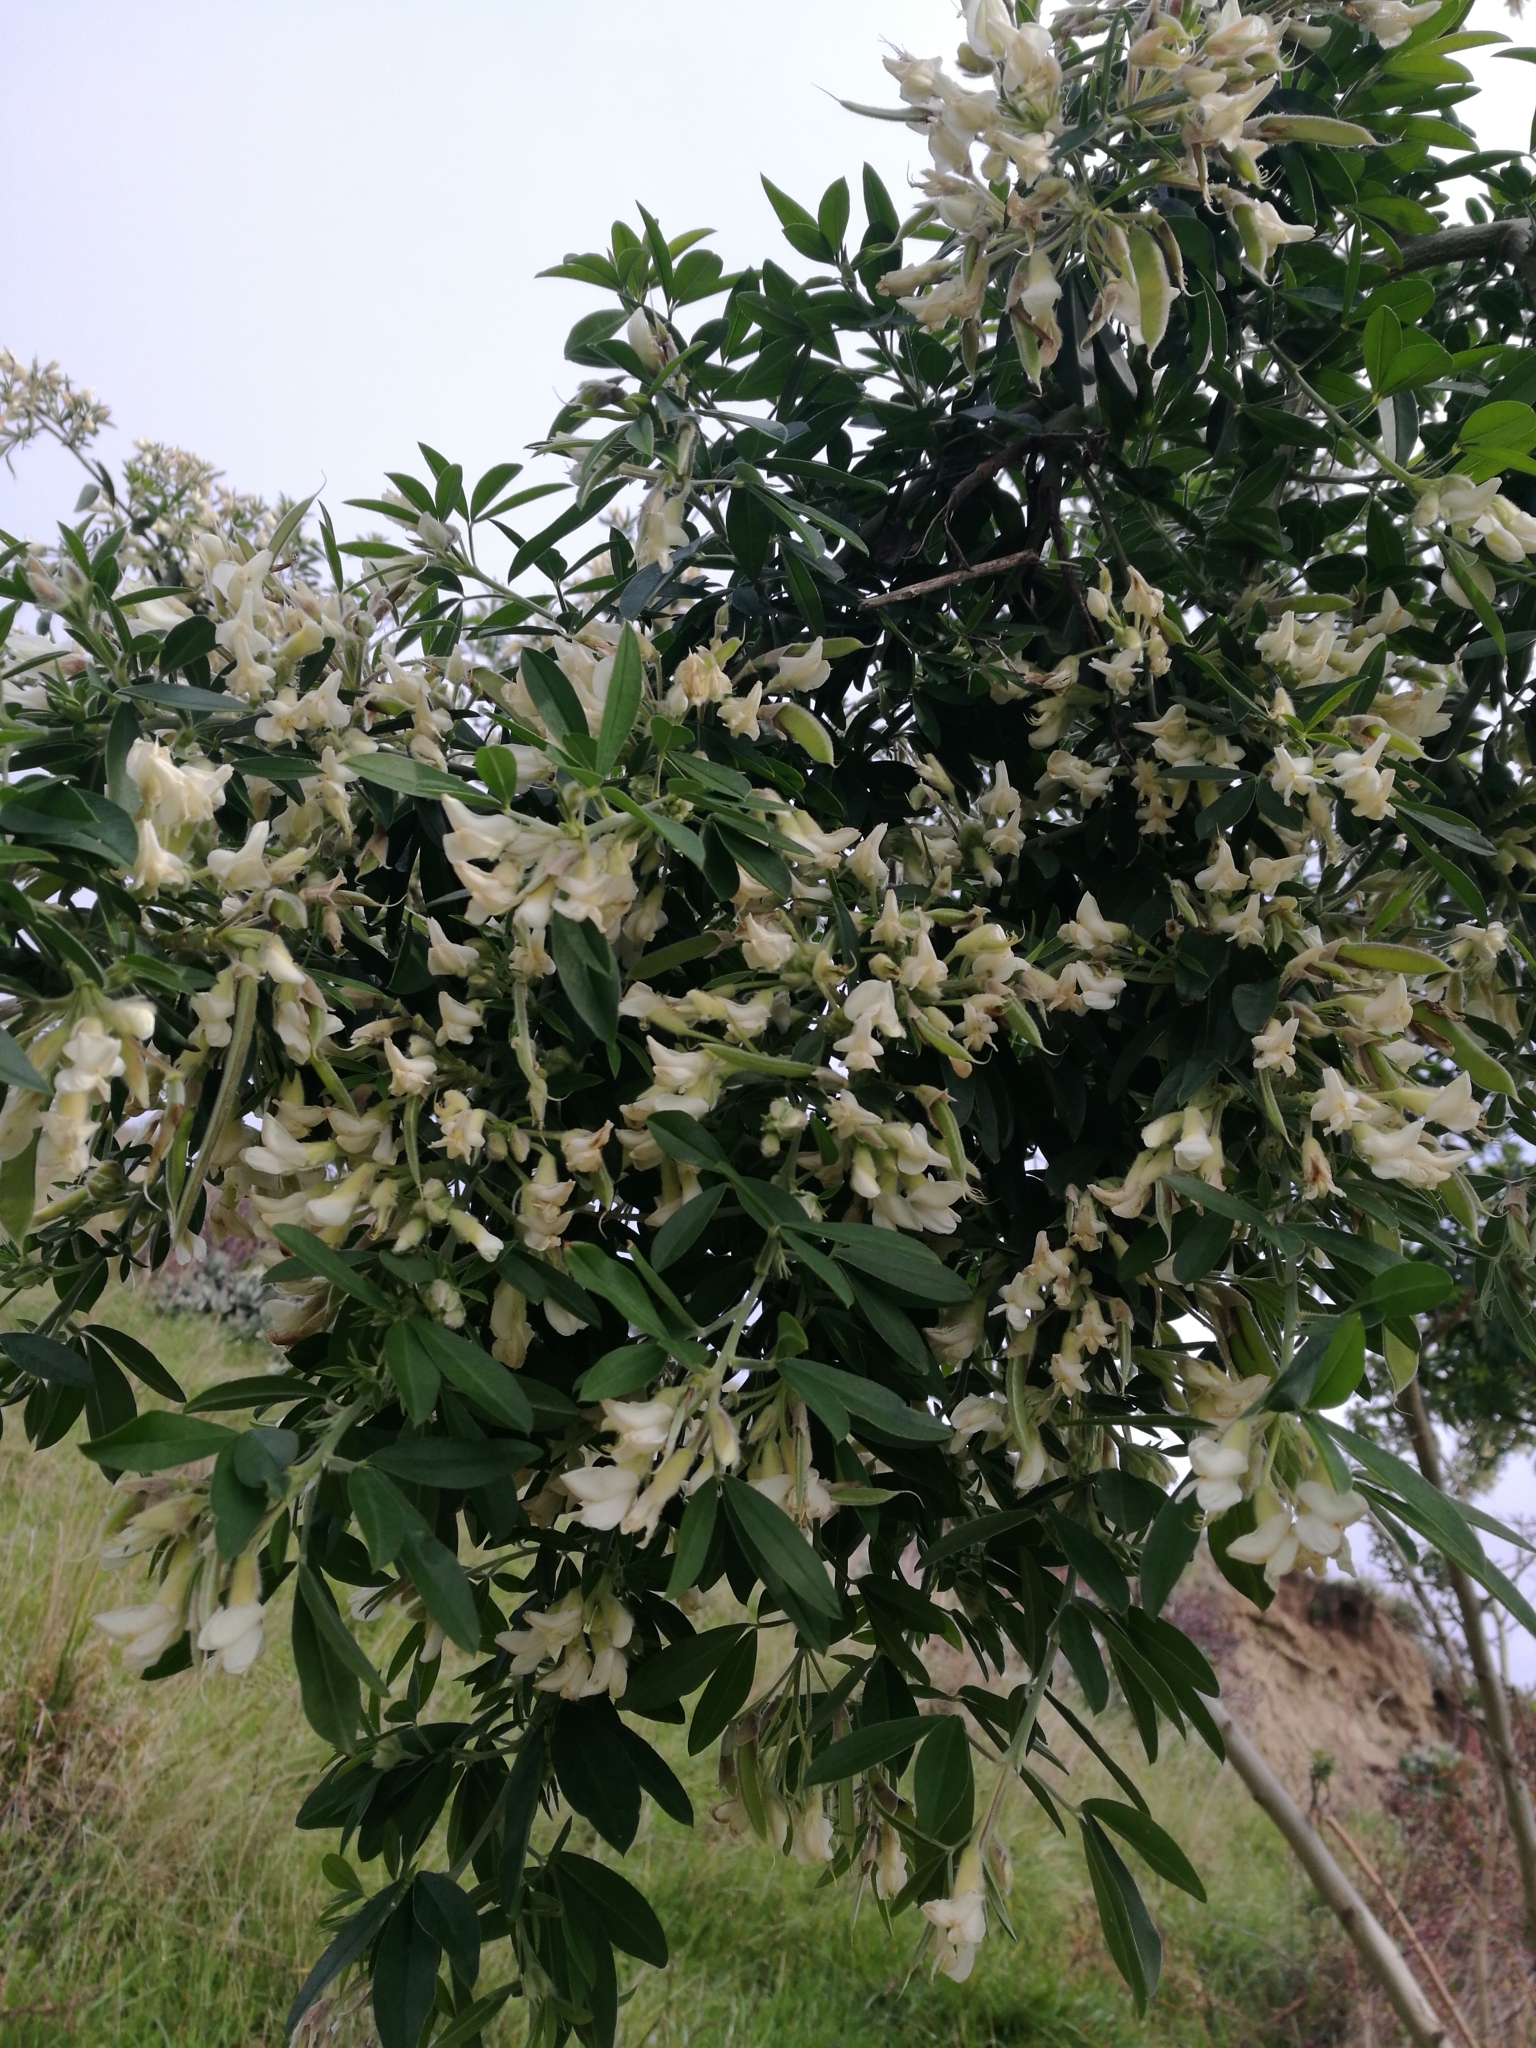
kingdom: Plantae
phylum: Tracheophyta
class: Magnoliopsida
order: Fabales
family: Fabaceae
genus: Chamaecytisus
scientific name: Chamaecytisus prolifer
